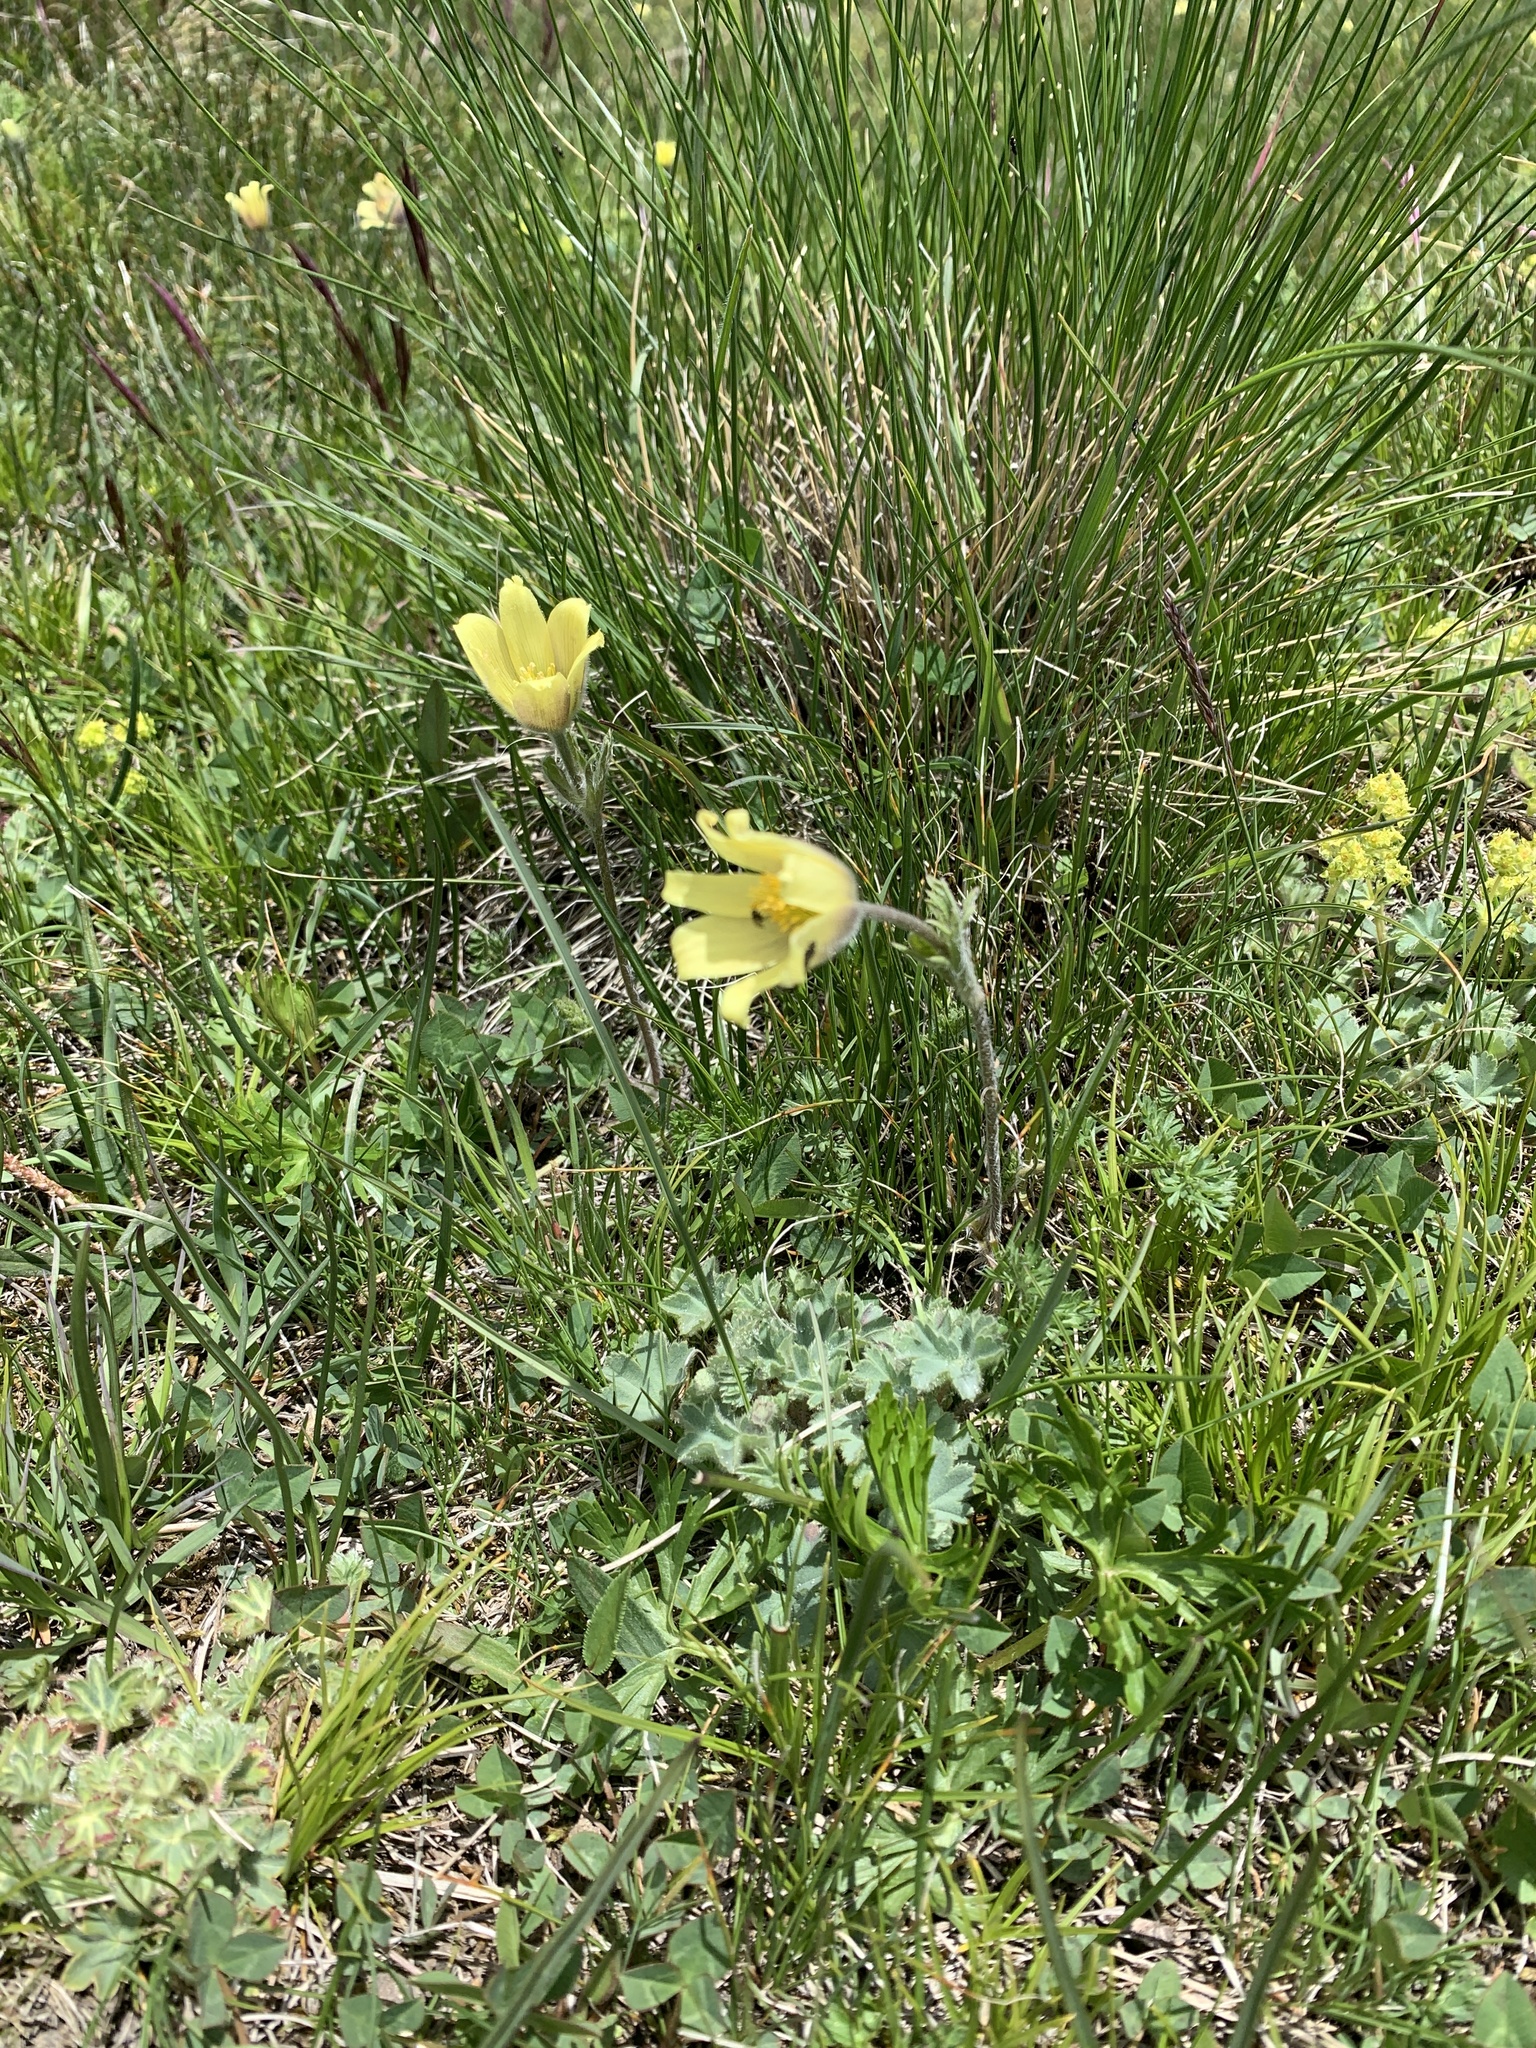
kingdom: Plantae
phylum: Tracheophyta
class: Magnoliopsida
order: Ranunculales
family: Ranunculaceae
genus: Pulsatilla
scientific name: Pulsatilla albana
